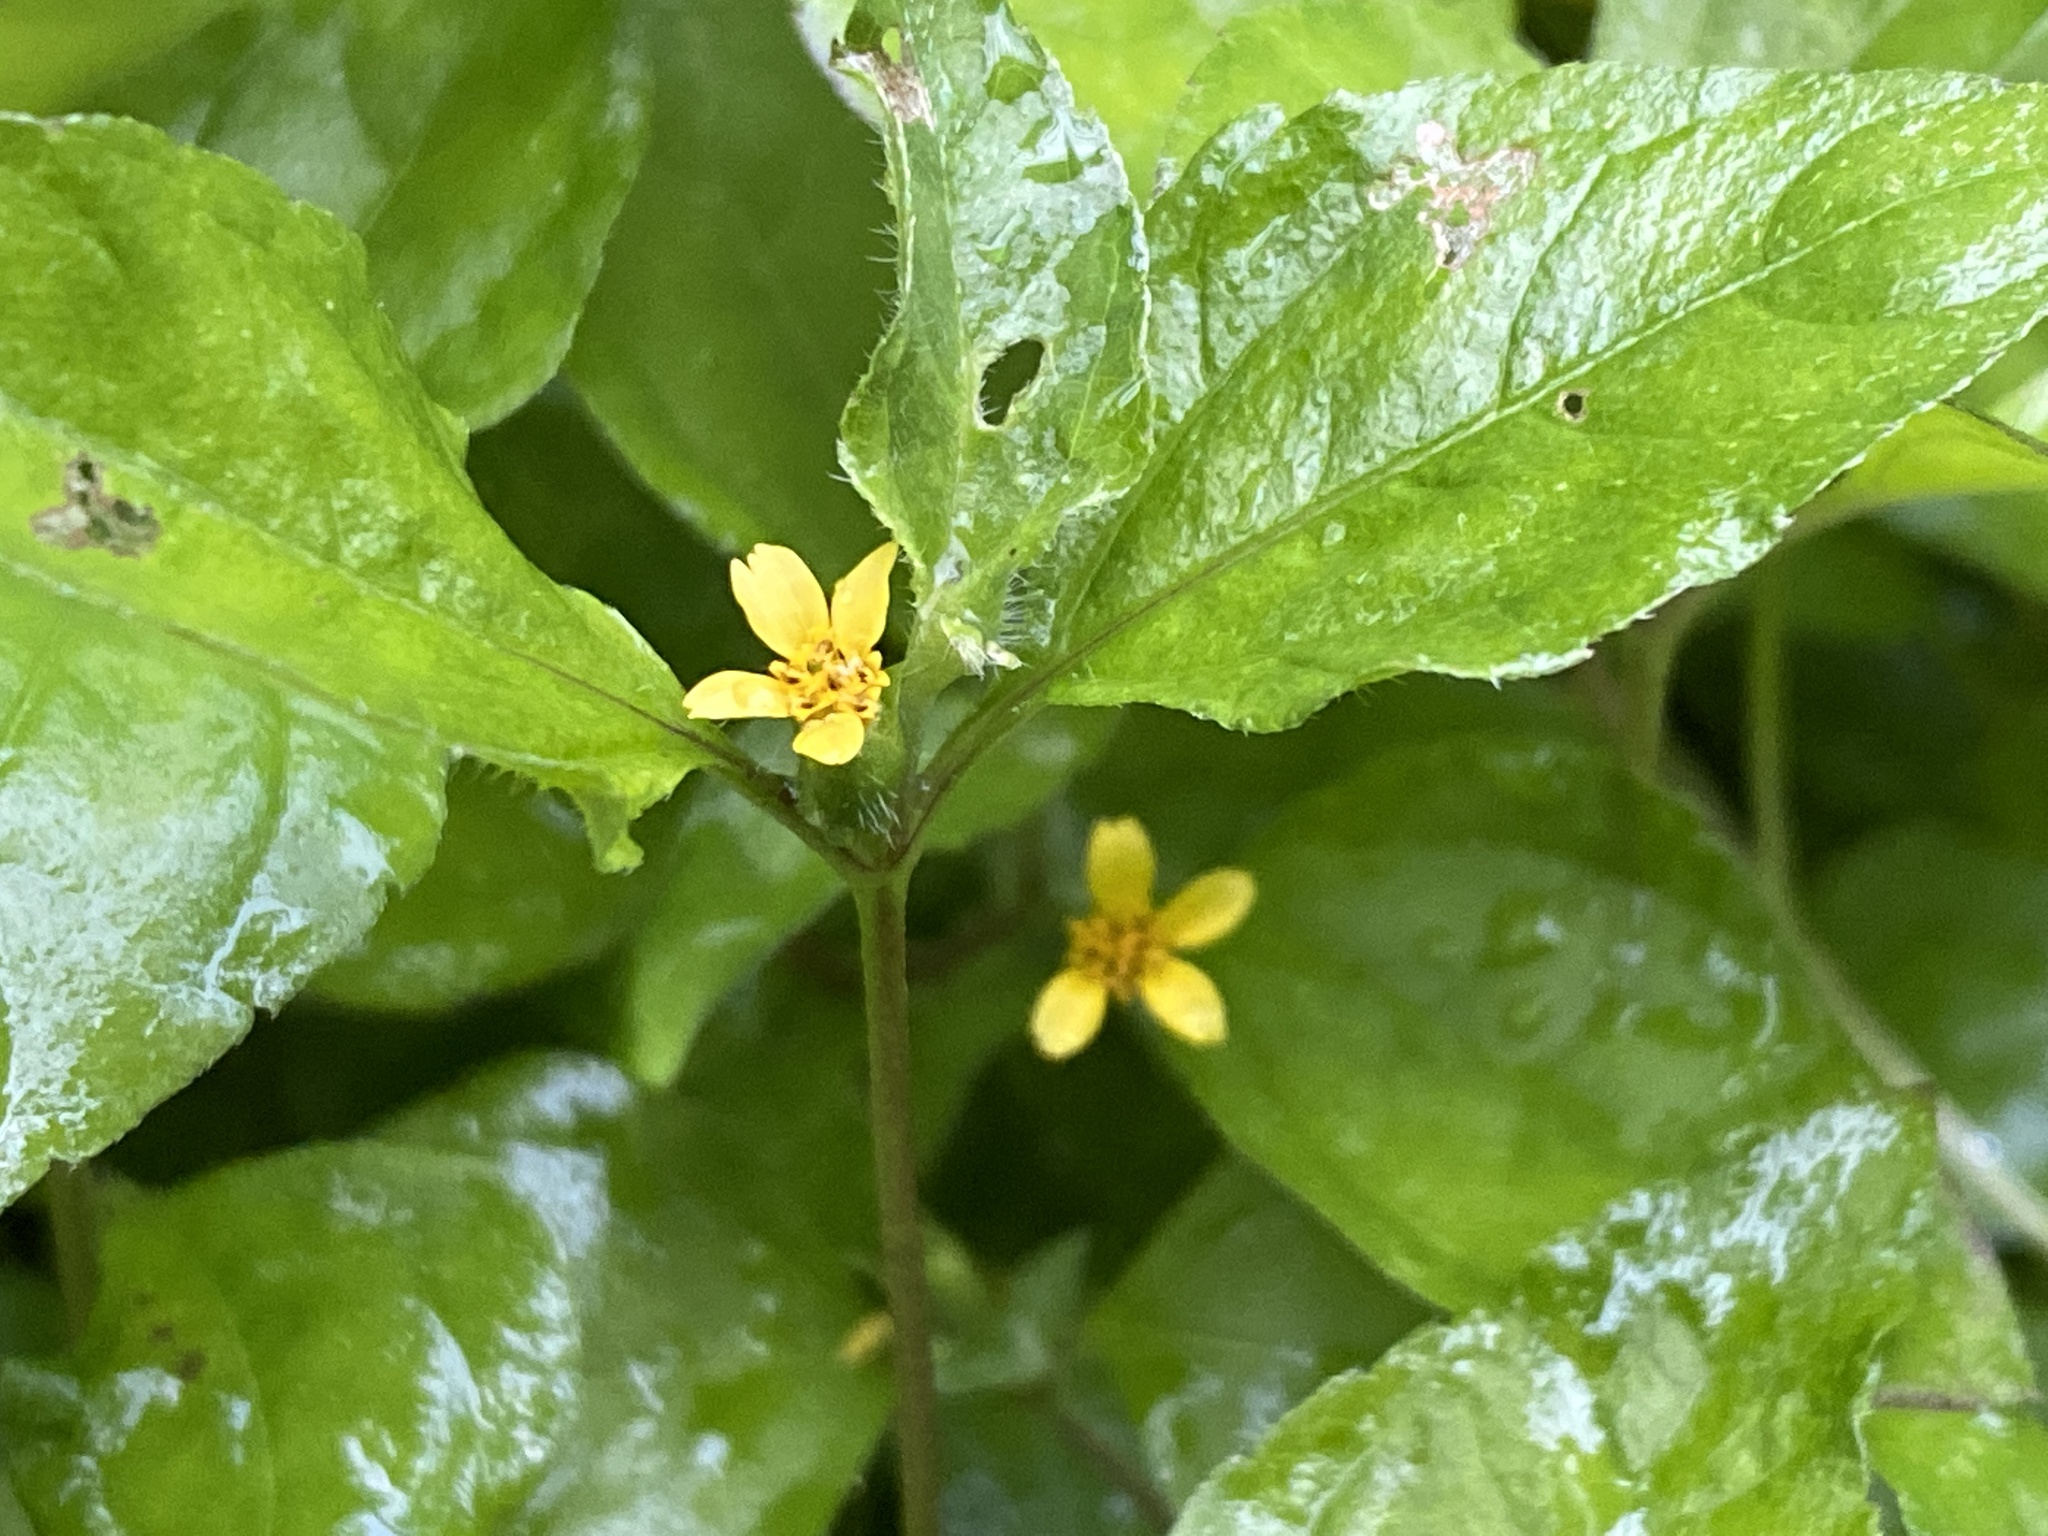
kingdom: Plantae
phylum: Tracheophyta
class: Magnoliopsida
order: Asterales
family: Asteraceae
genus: Calyptocarpus
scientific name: Calyptocarpus vialis
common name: Straggler daisy
